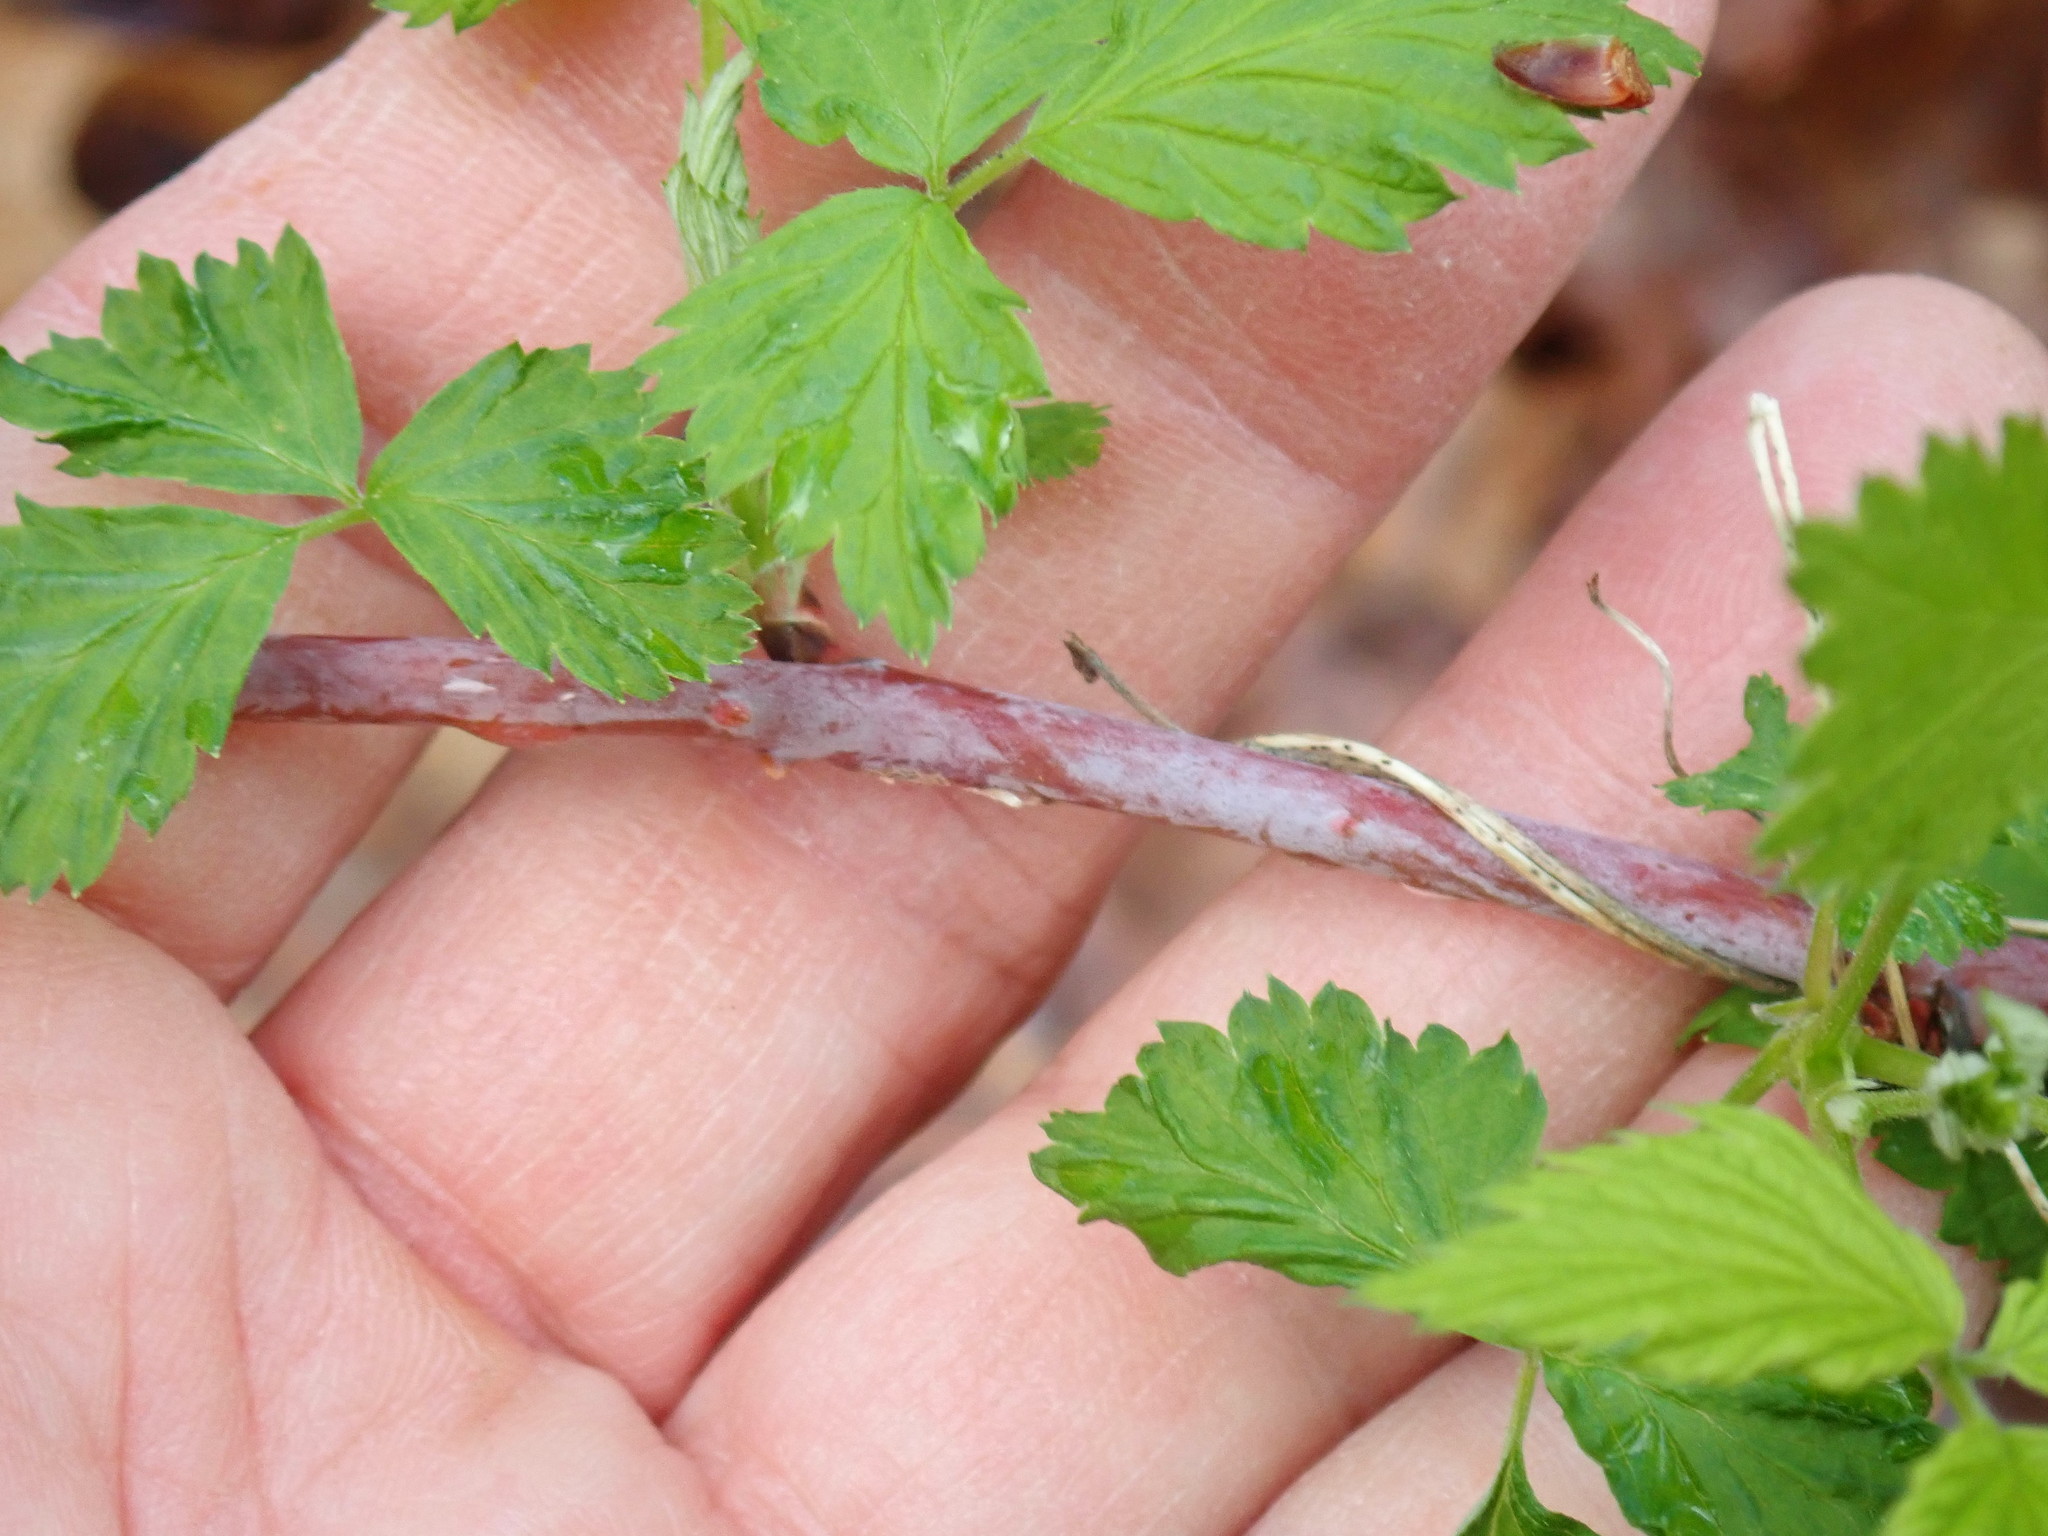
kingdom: Plantae
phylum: Tracheophyta
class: Magnoliopsida
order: Rosales
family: Rosaceae
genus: Rubus
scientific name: Rubus occidentalis
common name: Black raspberry
